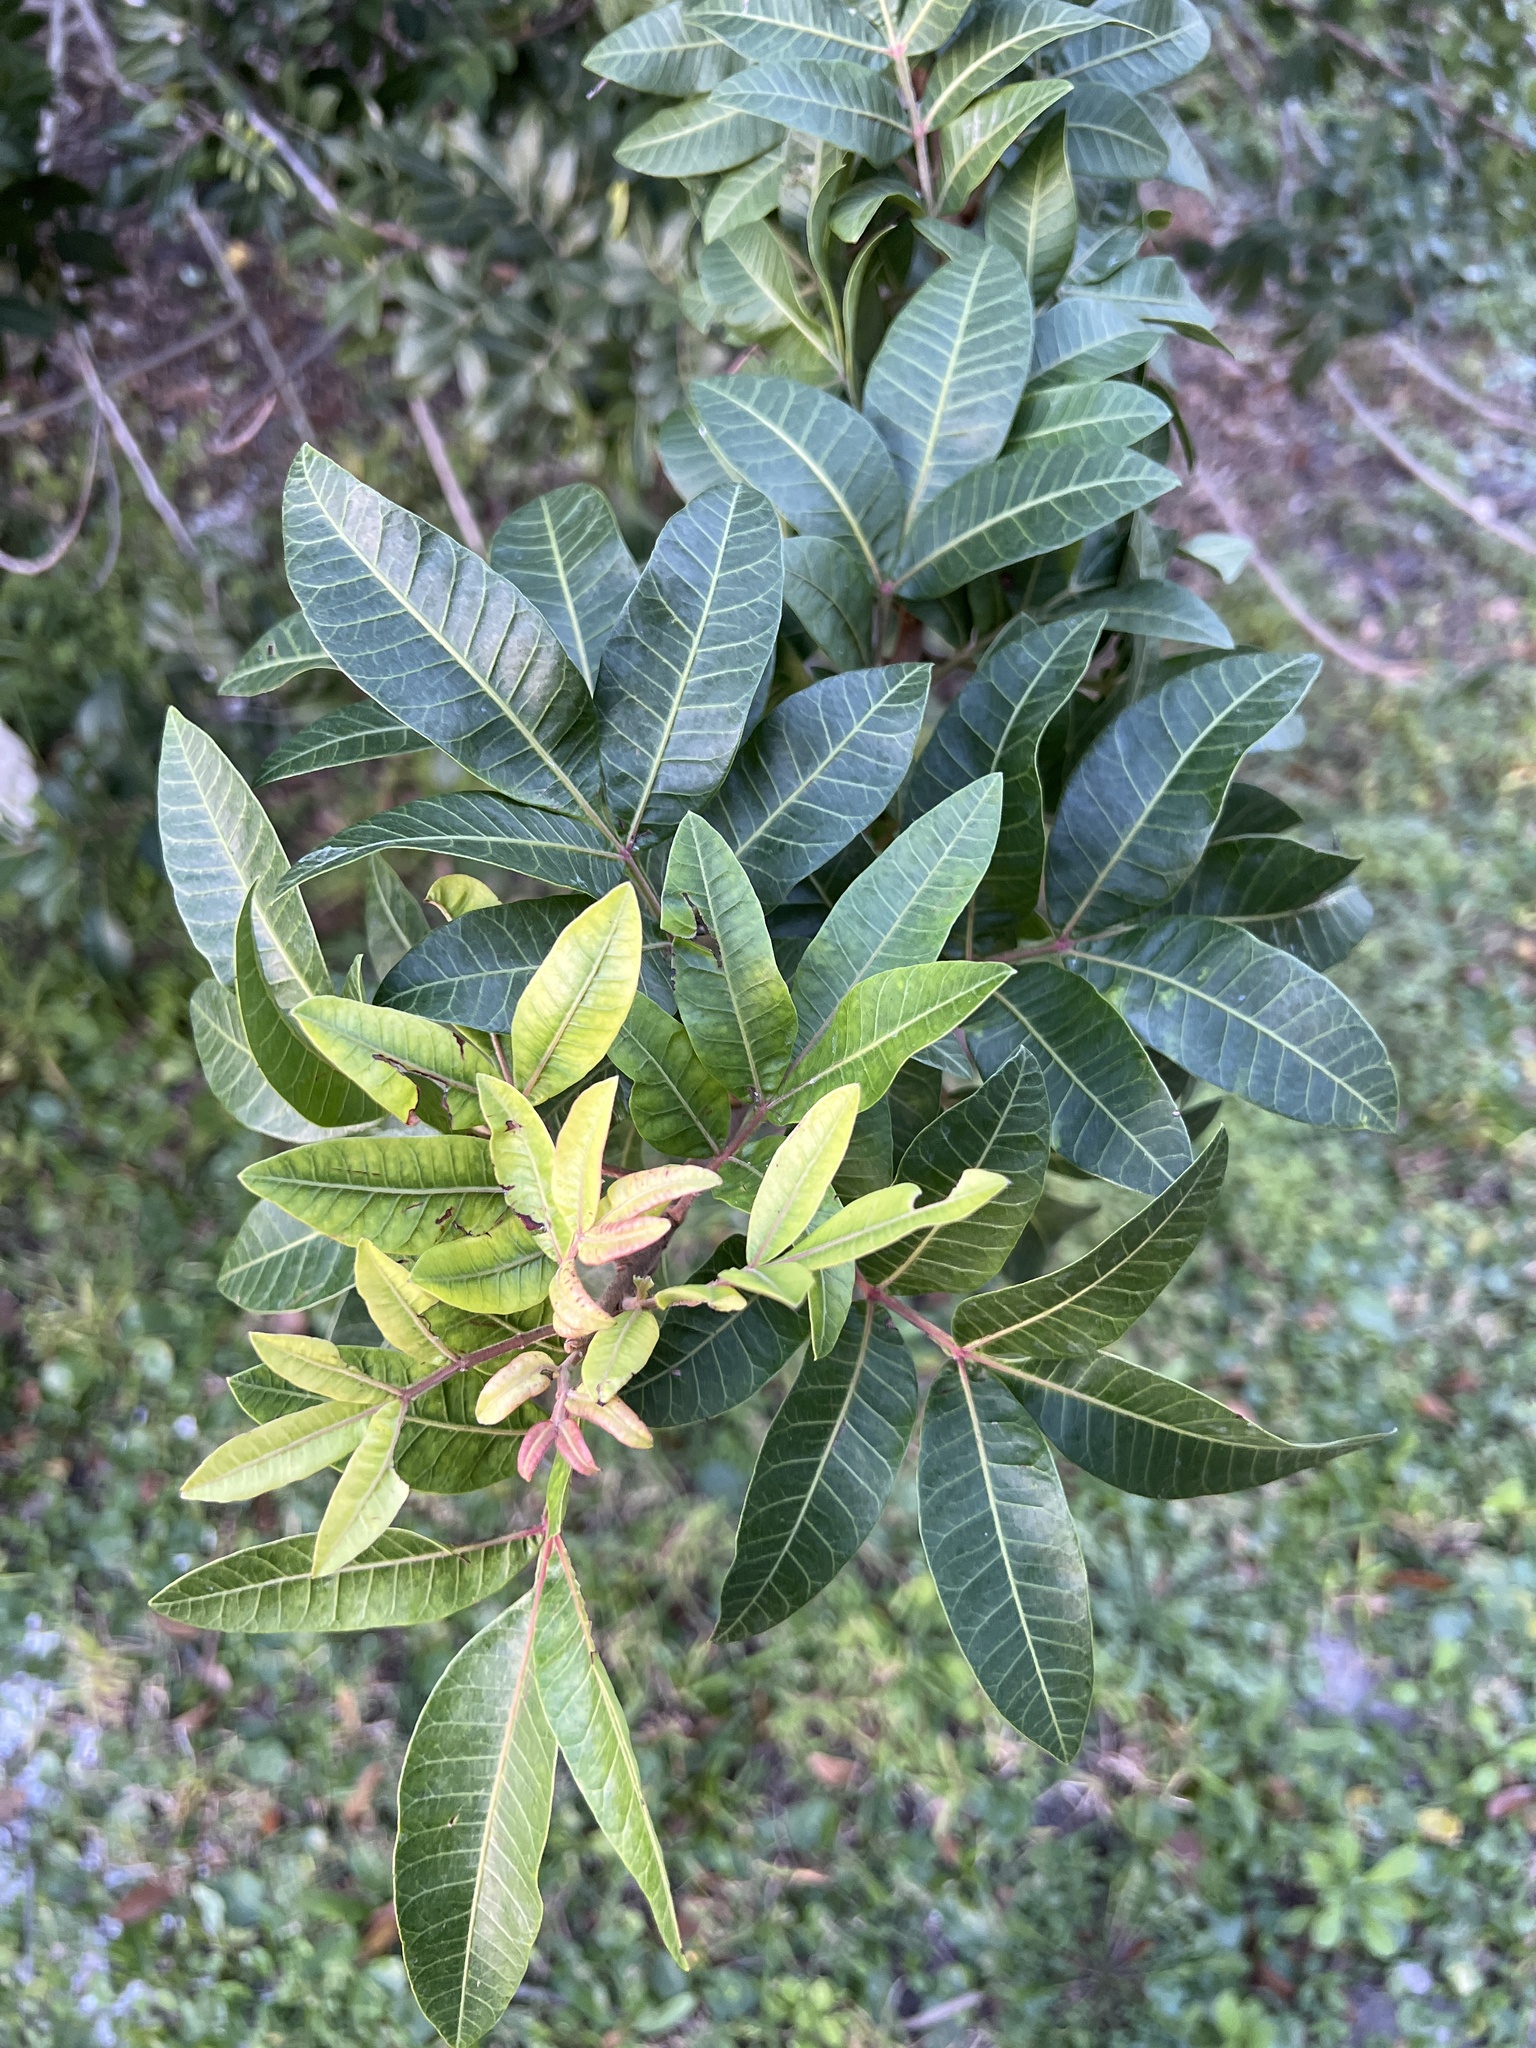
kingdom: Plantae
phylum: Tracheophyta
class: Magnoliopsida
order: Sapindales
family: Anacardiaceae
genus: Schinus
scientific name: Schinus terebinthifolia
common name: Brazilian peppertree
